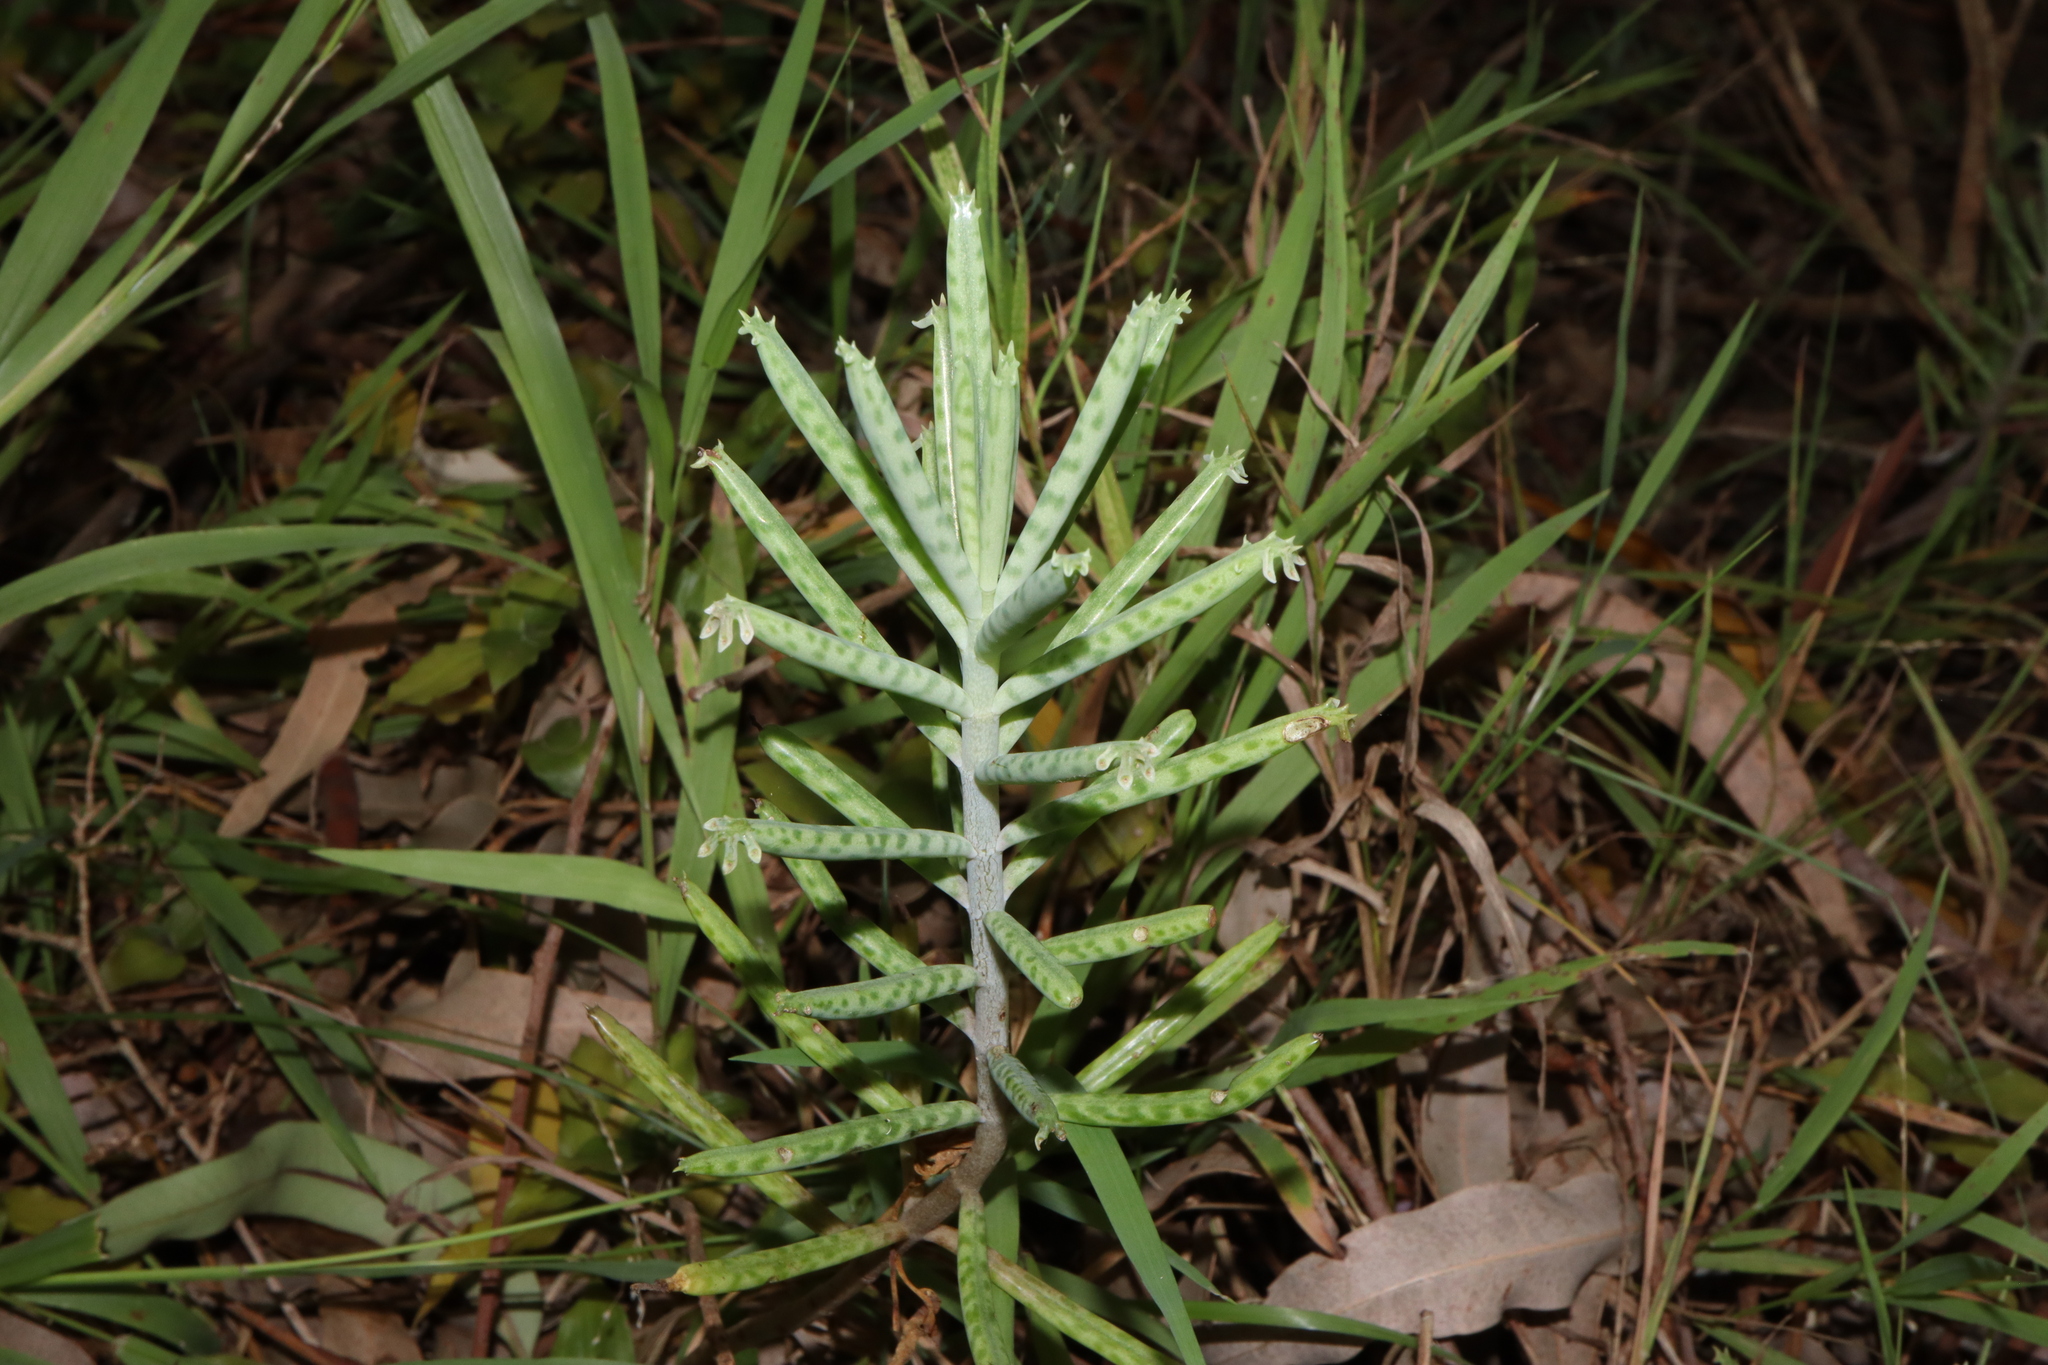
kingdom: Plantae
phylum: Tracheophyta
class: Magnoliopsida
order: Saxifragales
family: Crassulaceae
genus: Kalanchoe
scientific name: Kalanchoe delagoensis
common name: Chandelier plant
